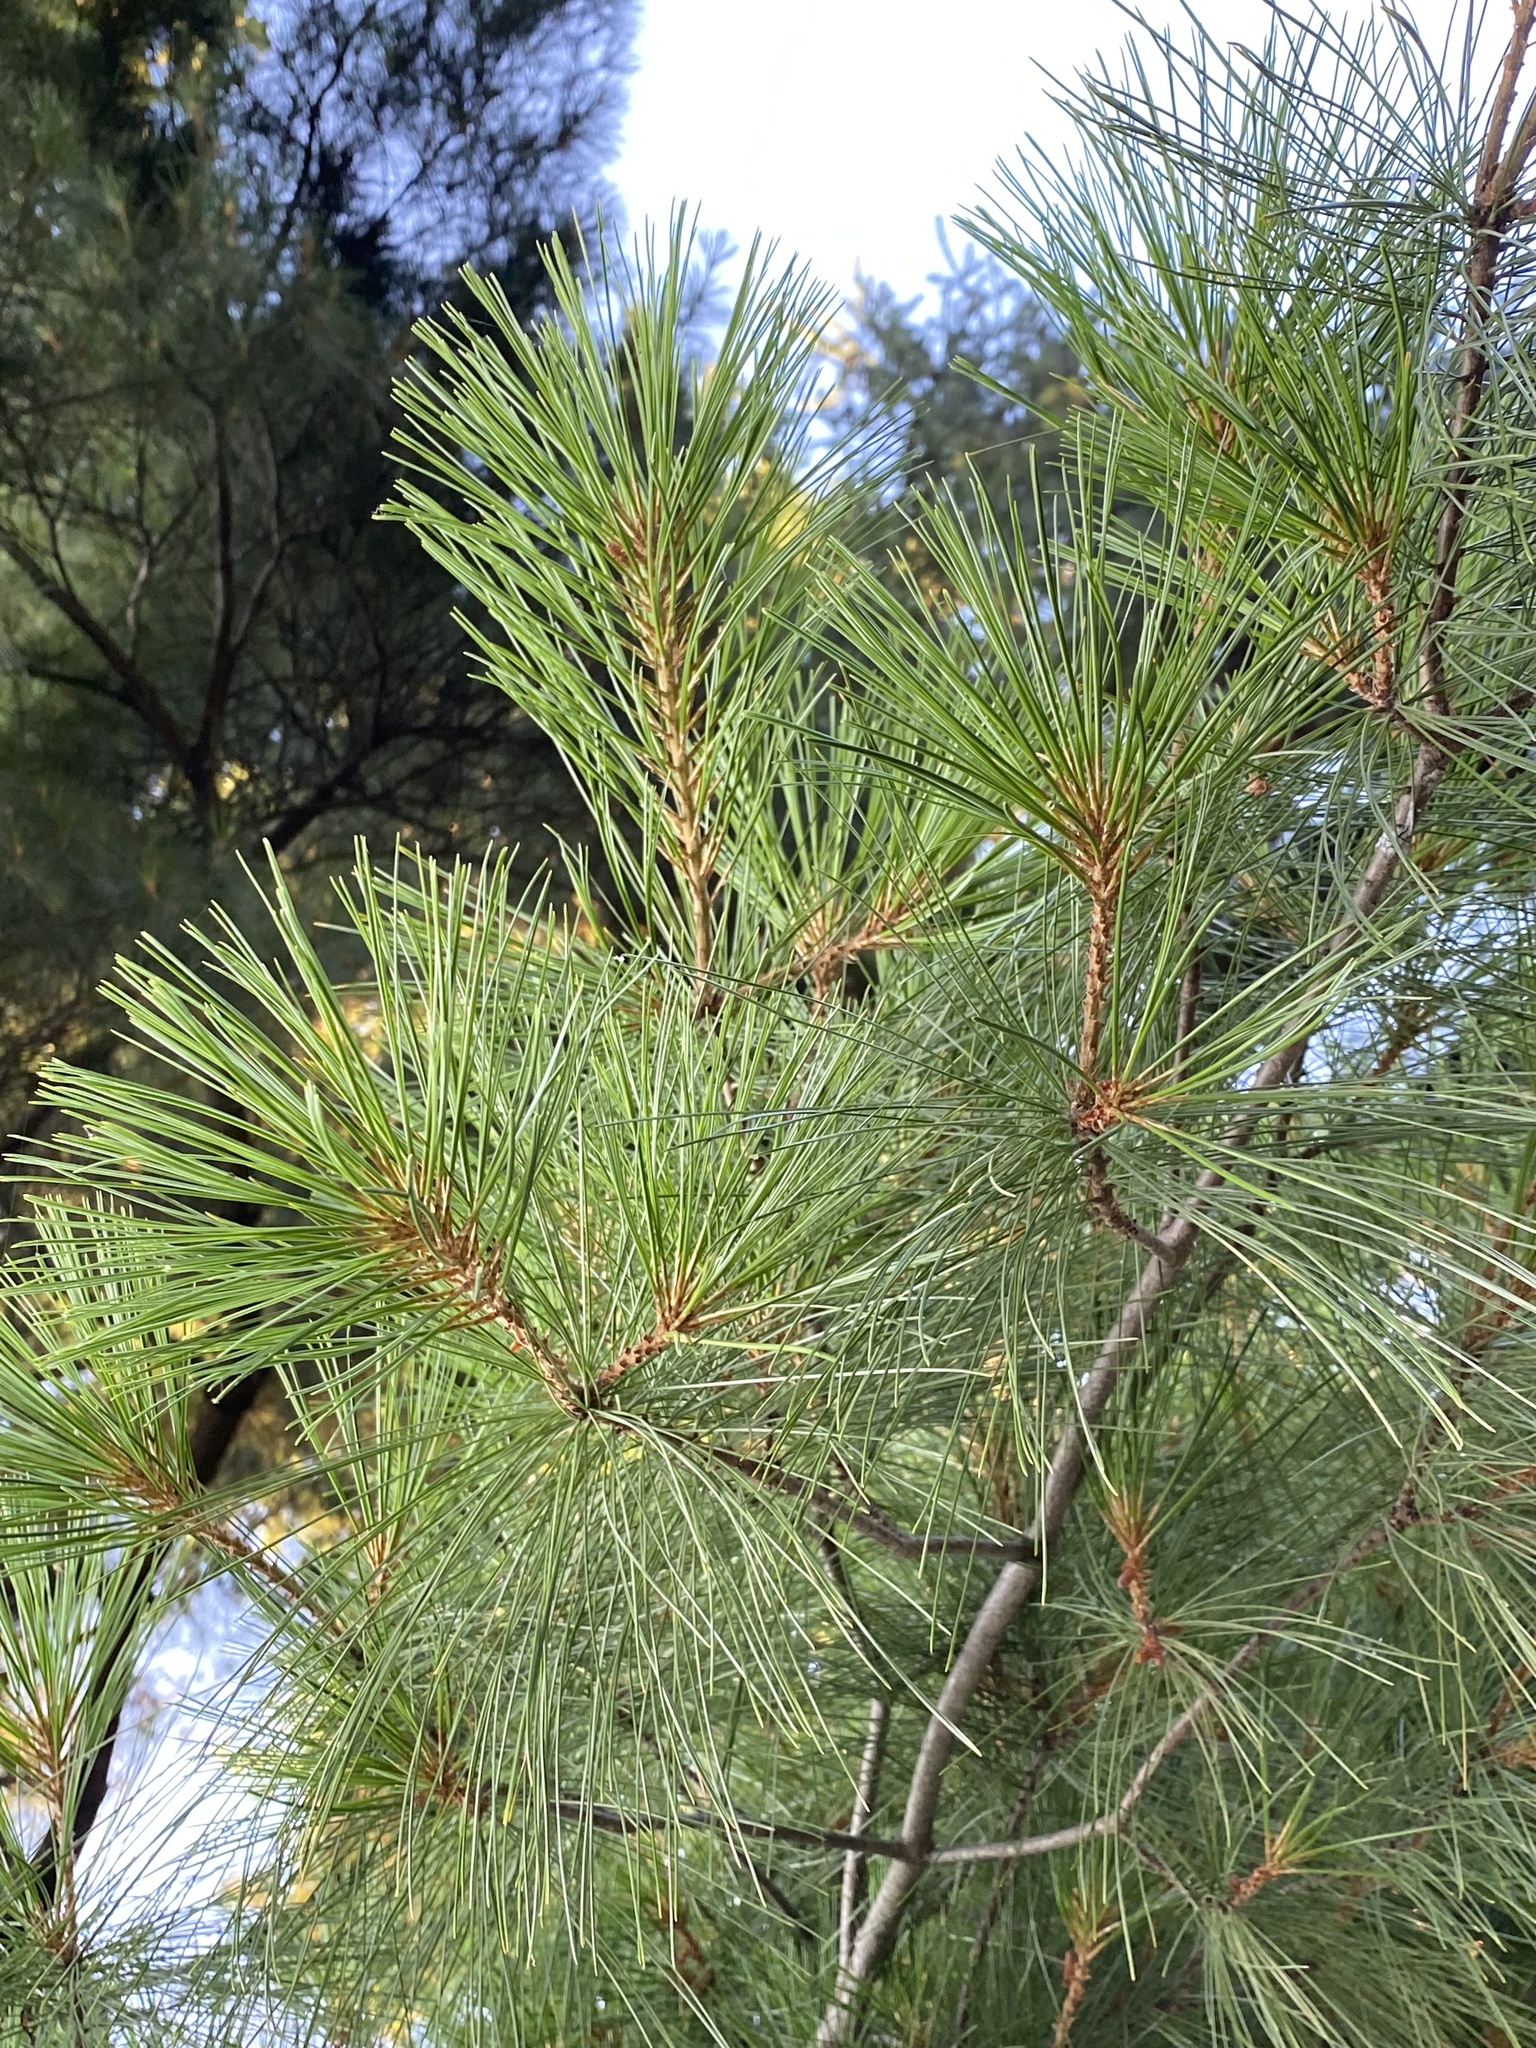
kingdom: Plantae
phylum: Tracheophyta
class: Pinopsida
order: Pinales
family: Pinaceae
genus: Pinus
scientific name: Pinus strobus
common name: Weymouth pine
